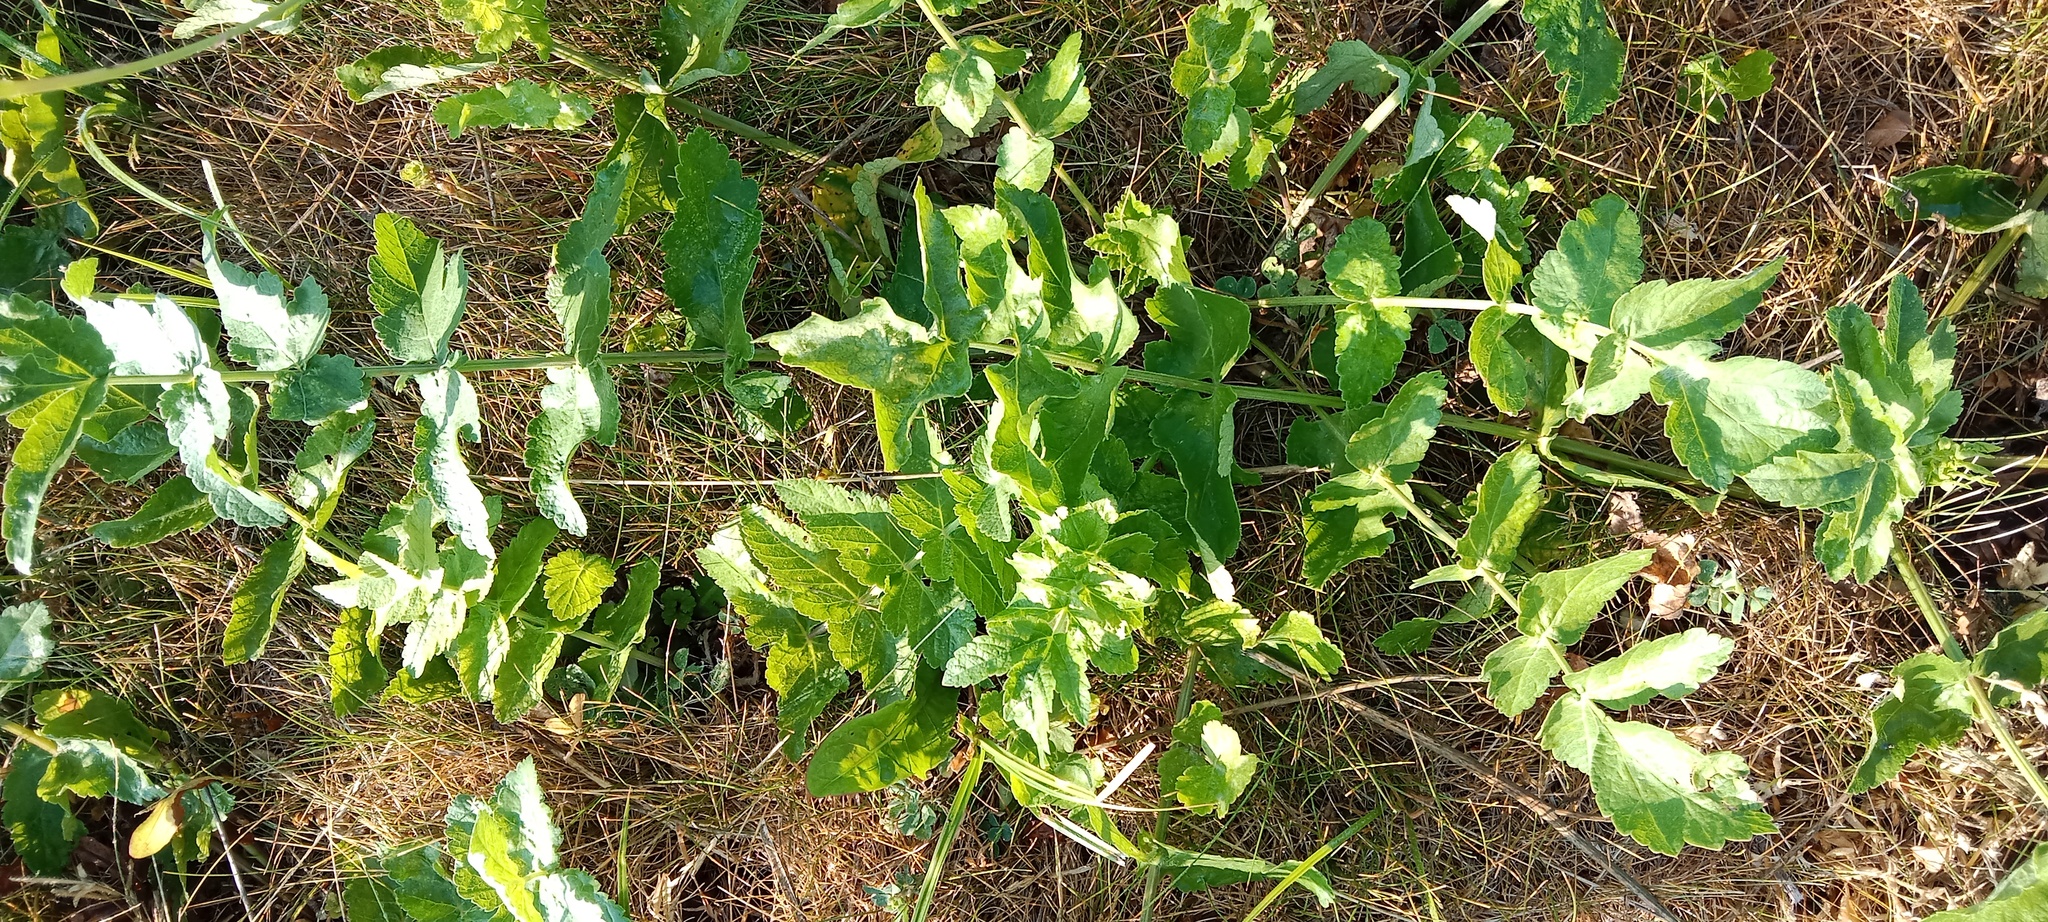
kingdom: Plantae
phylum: Tracheophyta
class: Magnoliopsida
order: Apiales
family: Apiaceae
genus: Pastinaca
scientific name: Pastinaca sativa
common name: Wild parsnip
